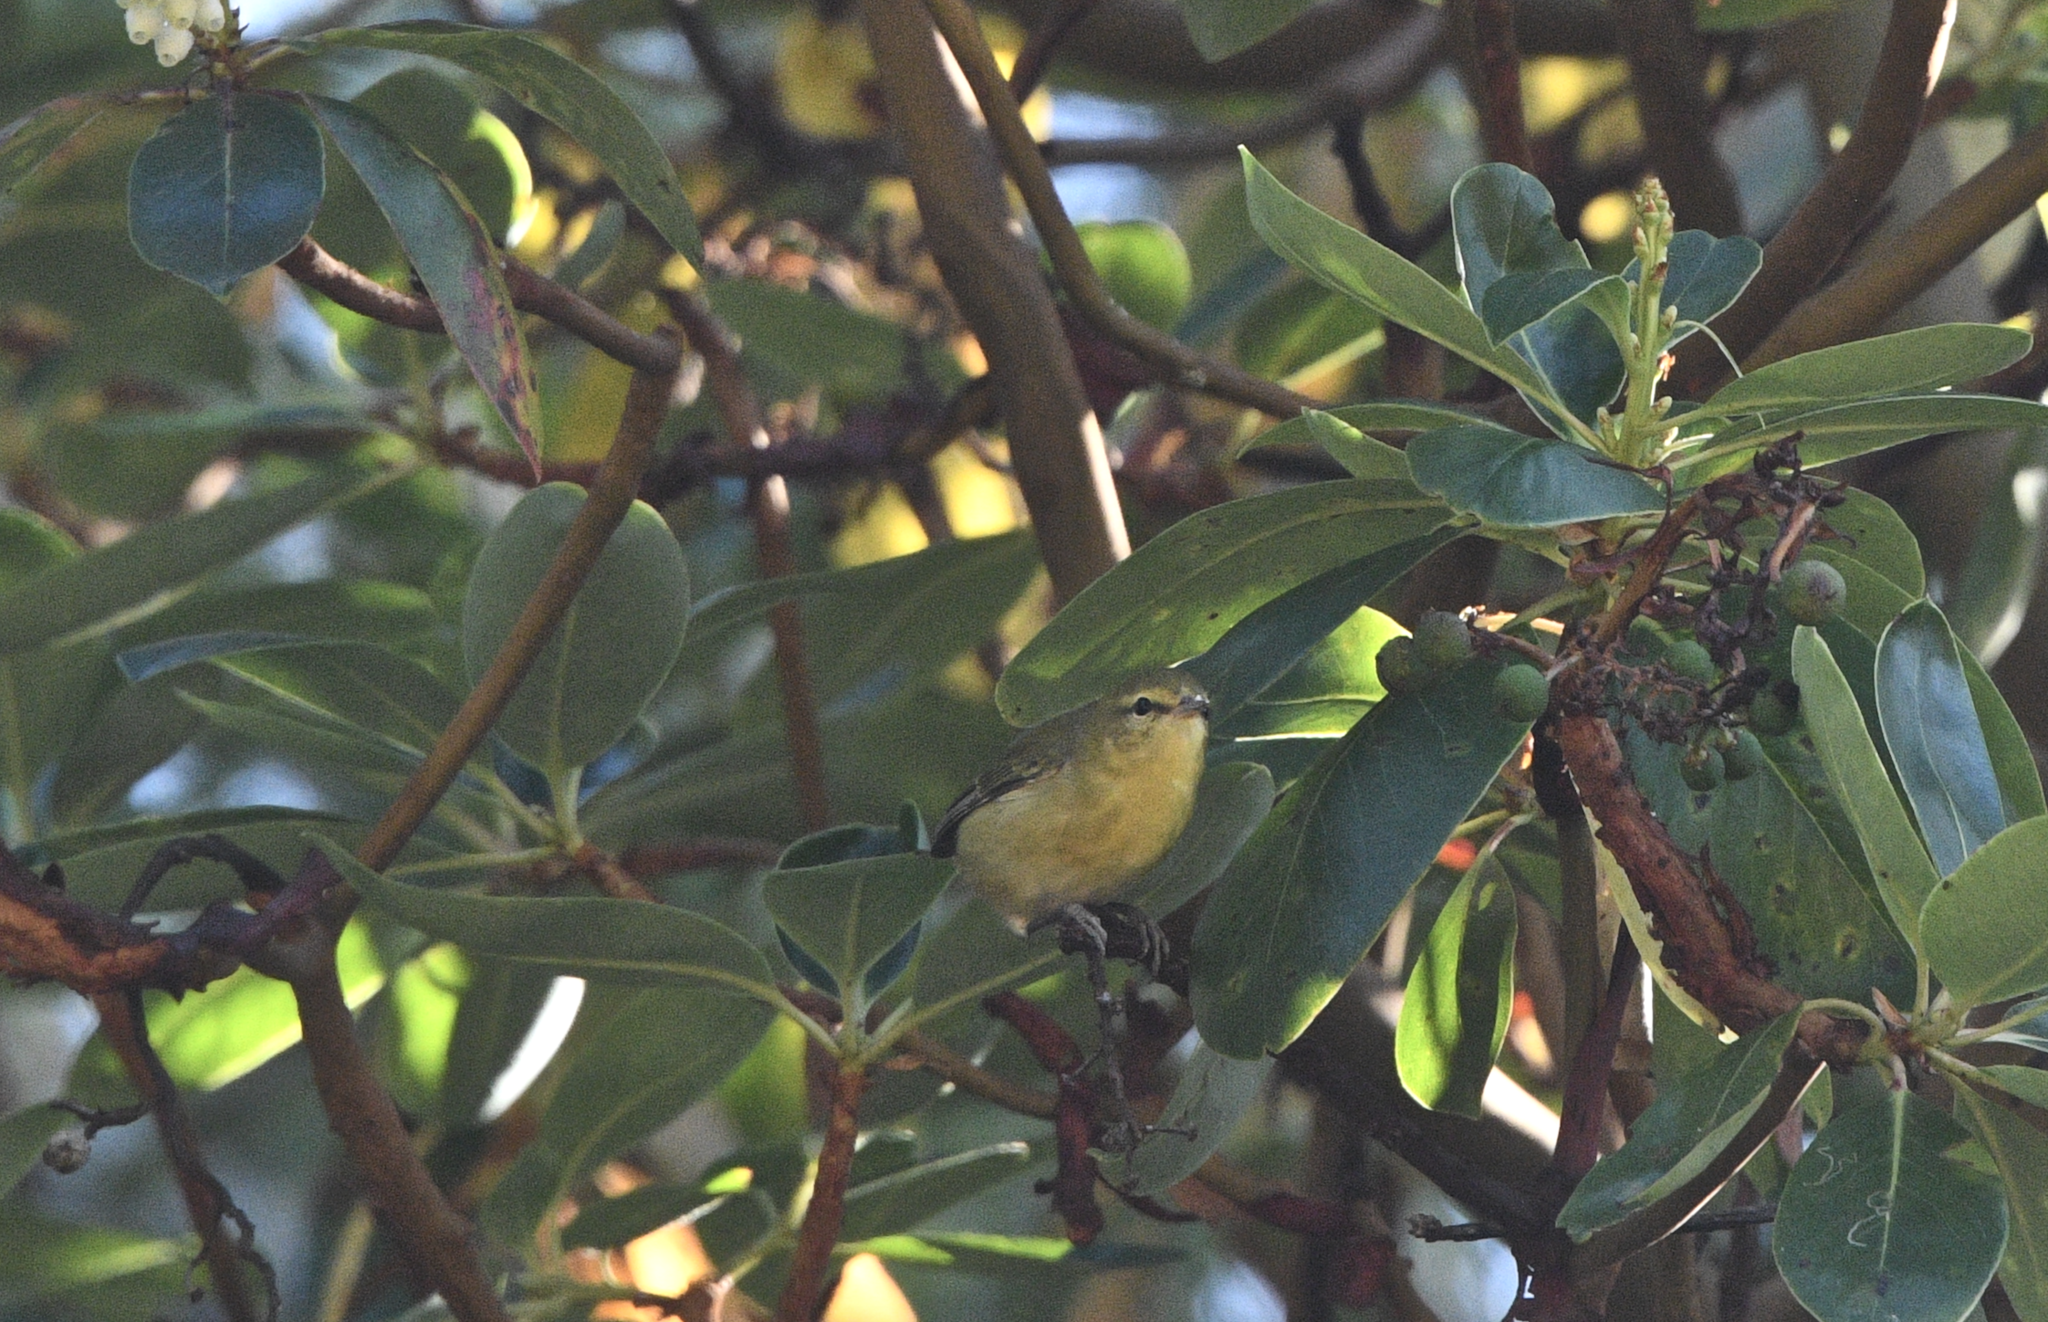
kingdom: Animalia
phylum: Chordata
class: Aves
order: Passeriformes
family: Parulidae
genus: Leiothlypis
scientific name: Leiothlypis peregrina
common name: Tennessee warbler
